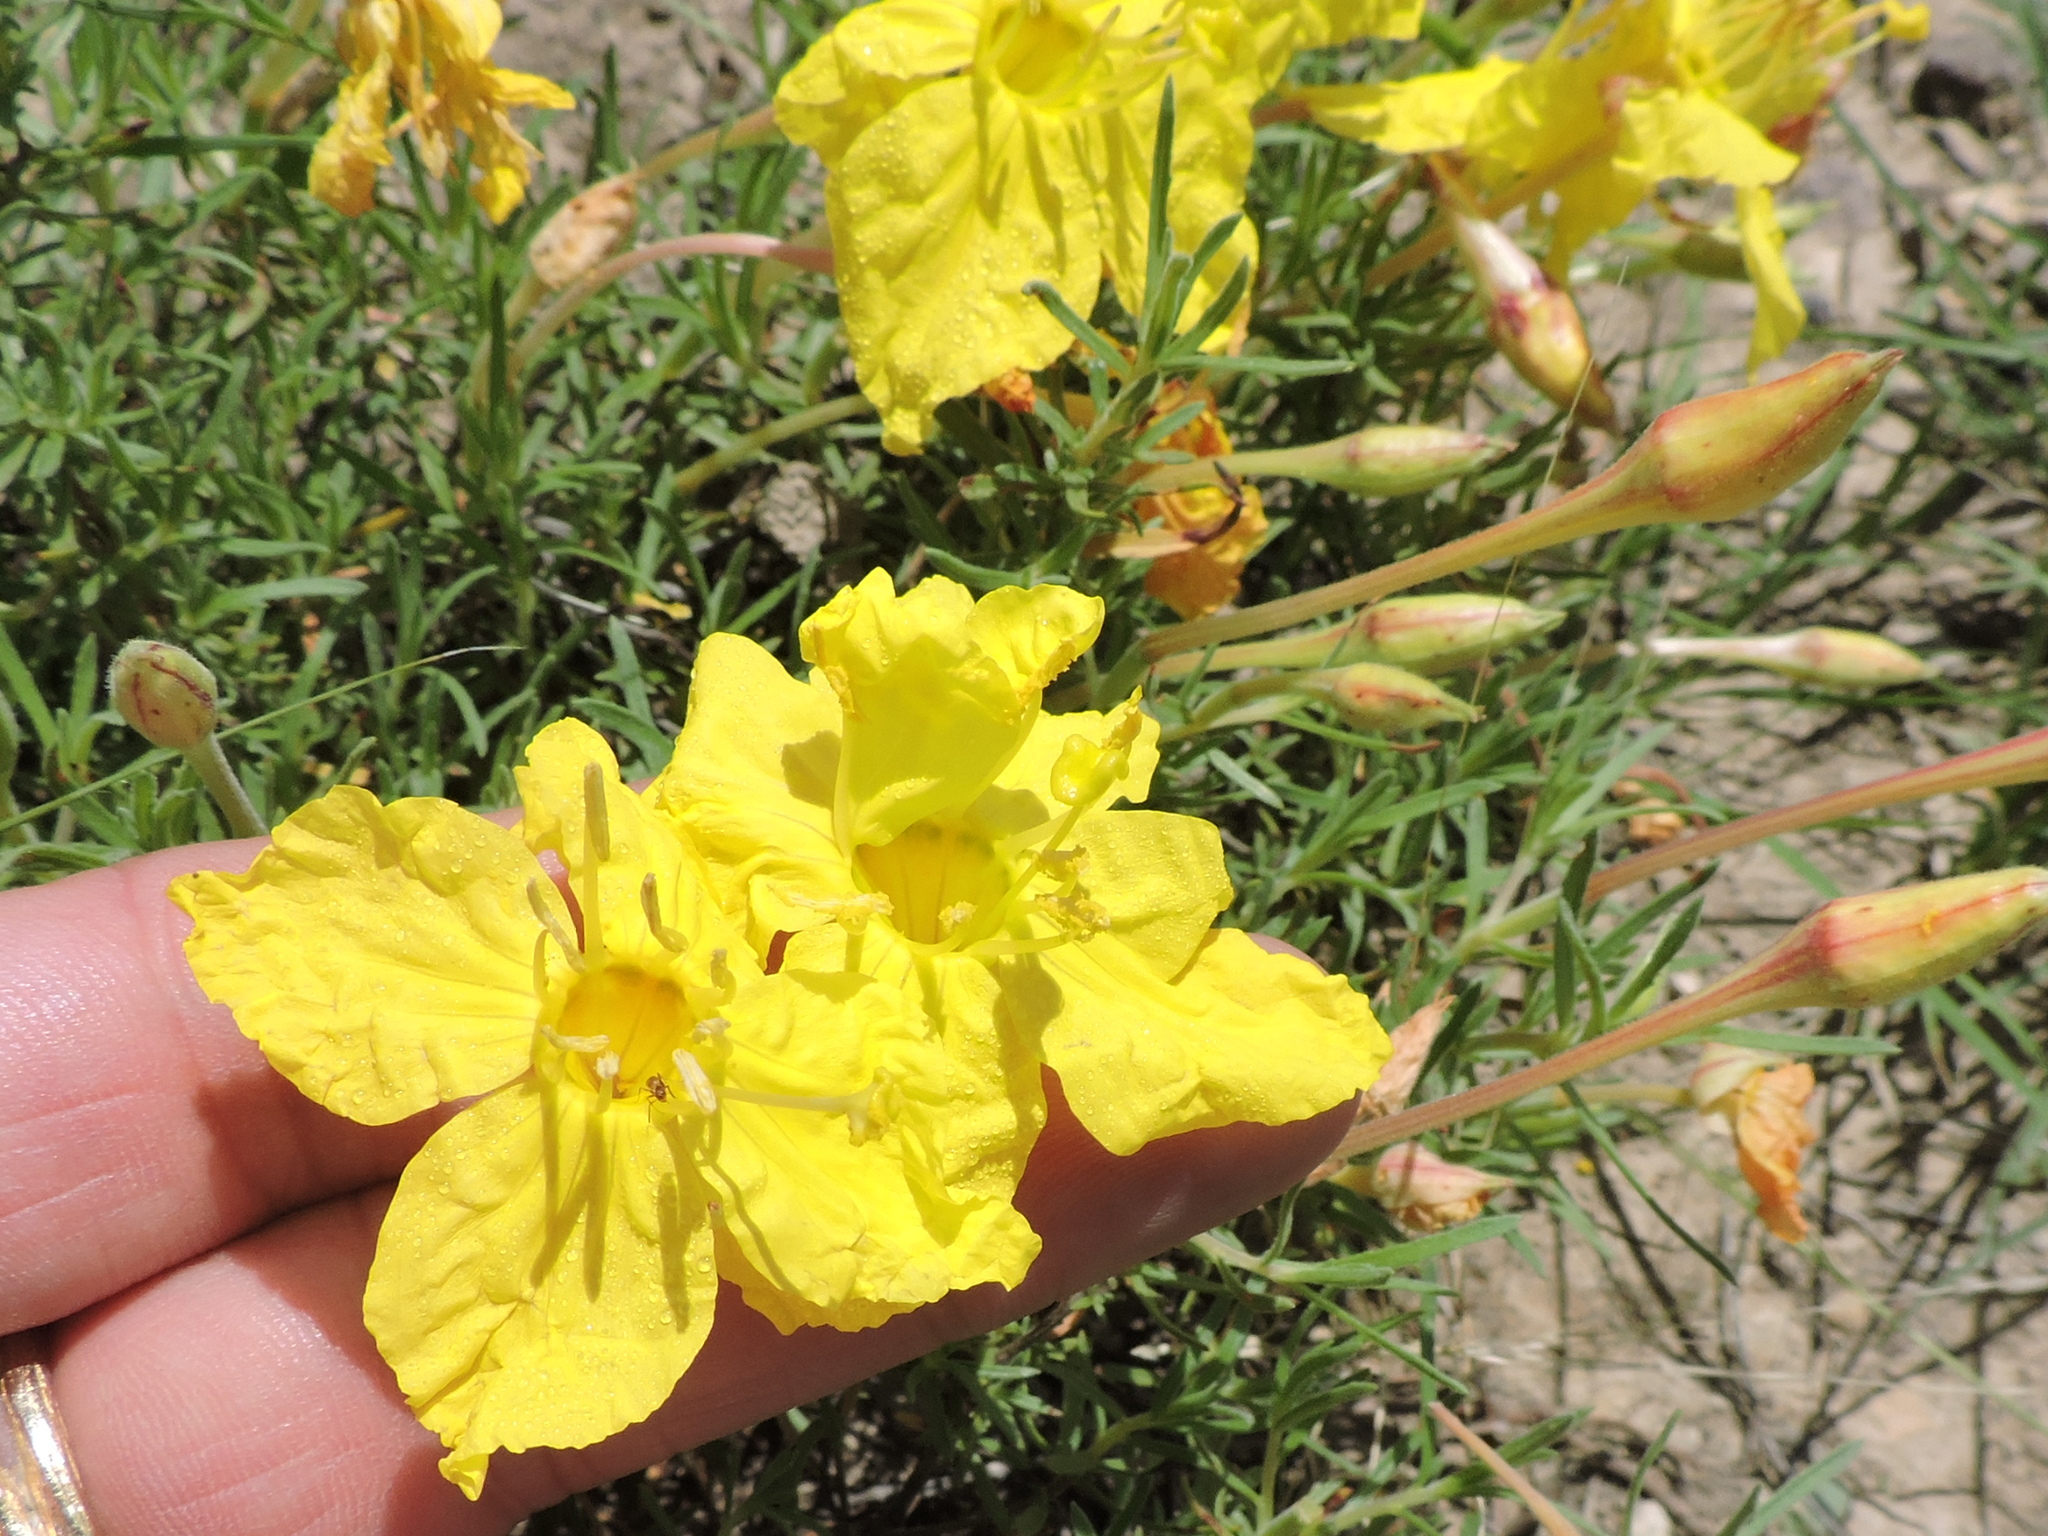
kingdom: Plantae
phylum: Tracheophyta
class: Magnoliopsida
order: Myrtales
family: Onagraceae
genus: Oenothera
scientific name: Oenothera hartwegii
